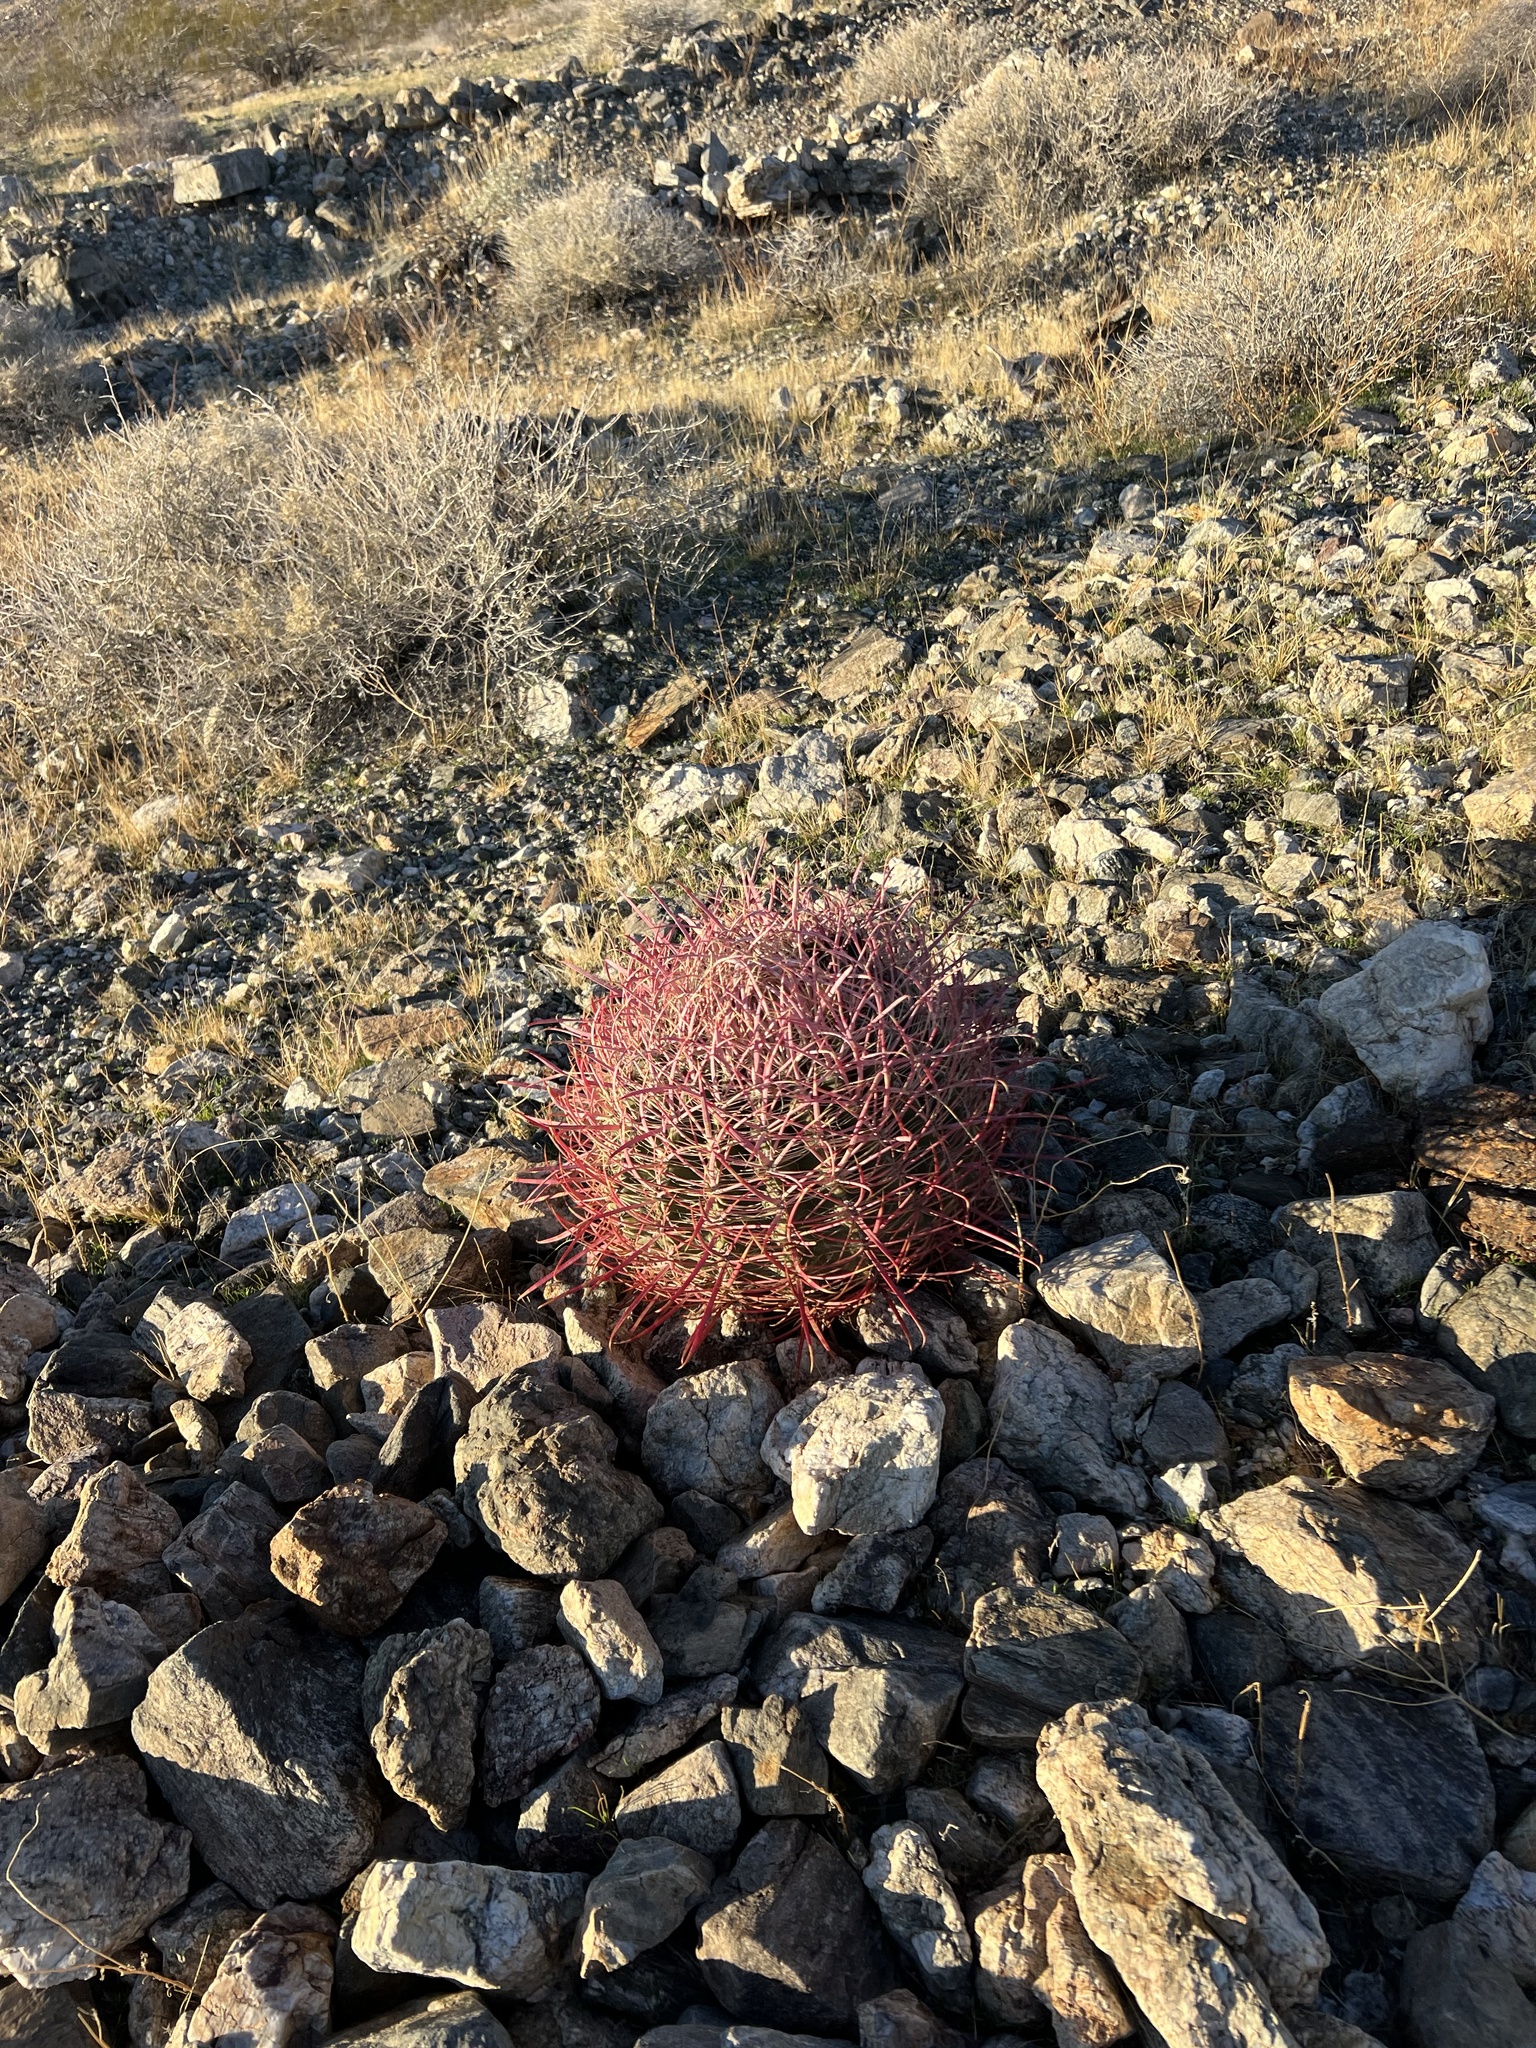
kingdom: Plantae
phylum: Tracheophyta
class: Magnoliopsida
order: Caryophyllales
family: Cactaceae
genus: Ferocactus
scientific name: Ferocactus cylindraceus
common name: California barrel cactus
